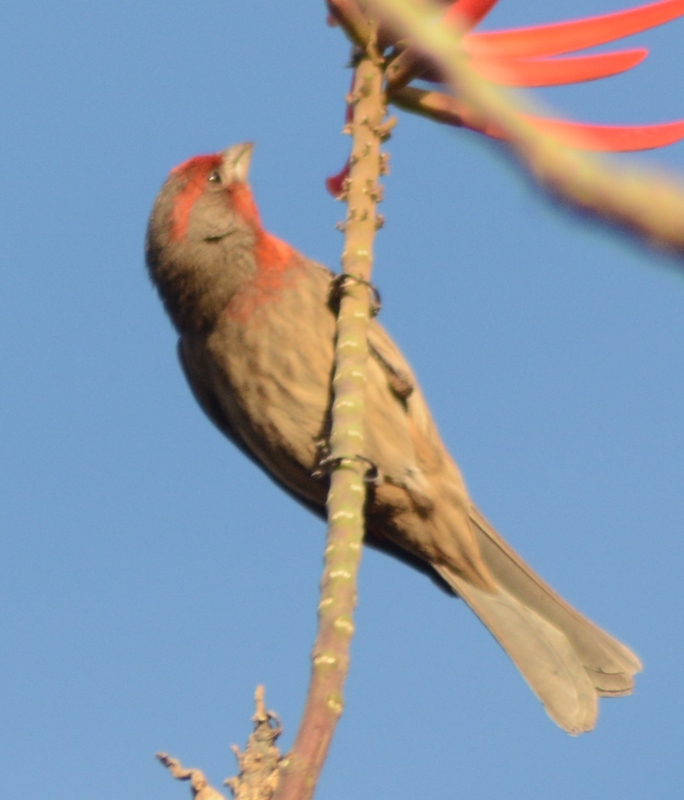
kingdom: Animalia
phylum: Chordata
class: Aves
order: Passeriformes
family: Fringillidae
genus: Haemorhous
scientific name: Haemorhous mexicanus
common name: House finch
